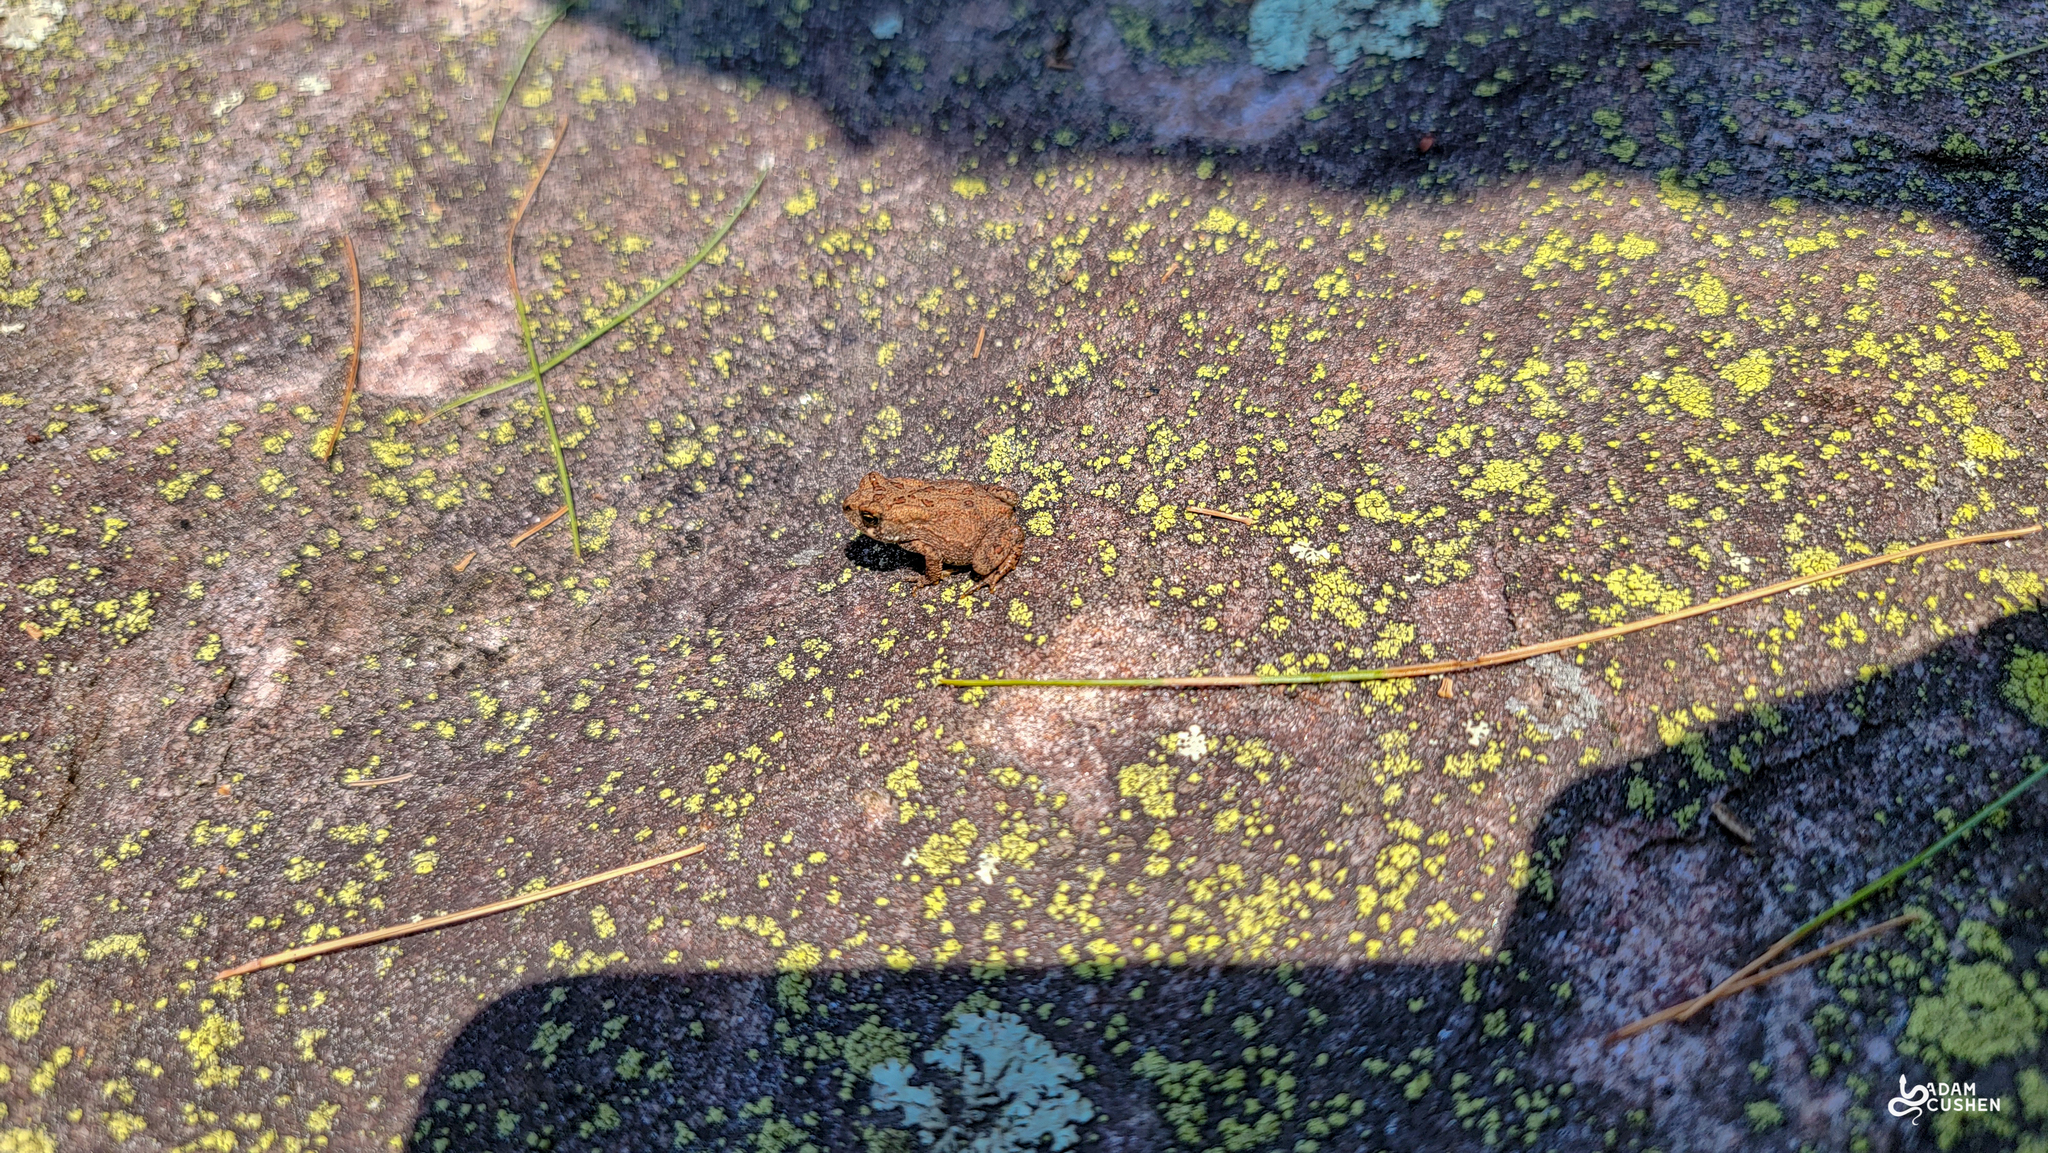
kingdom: Animalia
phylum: Chordata
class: Amphibia
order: Anura
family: Bufonidae
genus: Anaxyrus
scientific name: Anaxyrus americanus
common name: American toad
